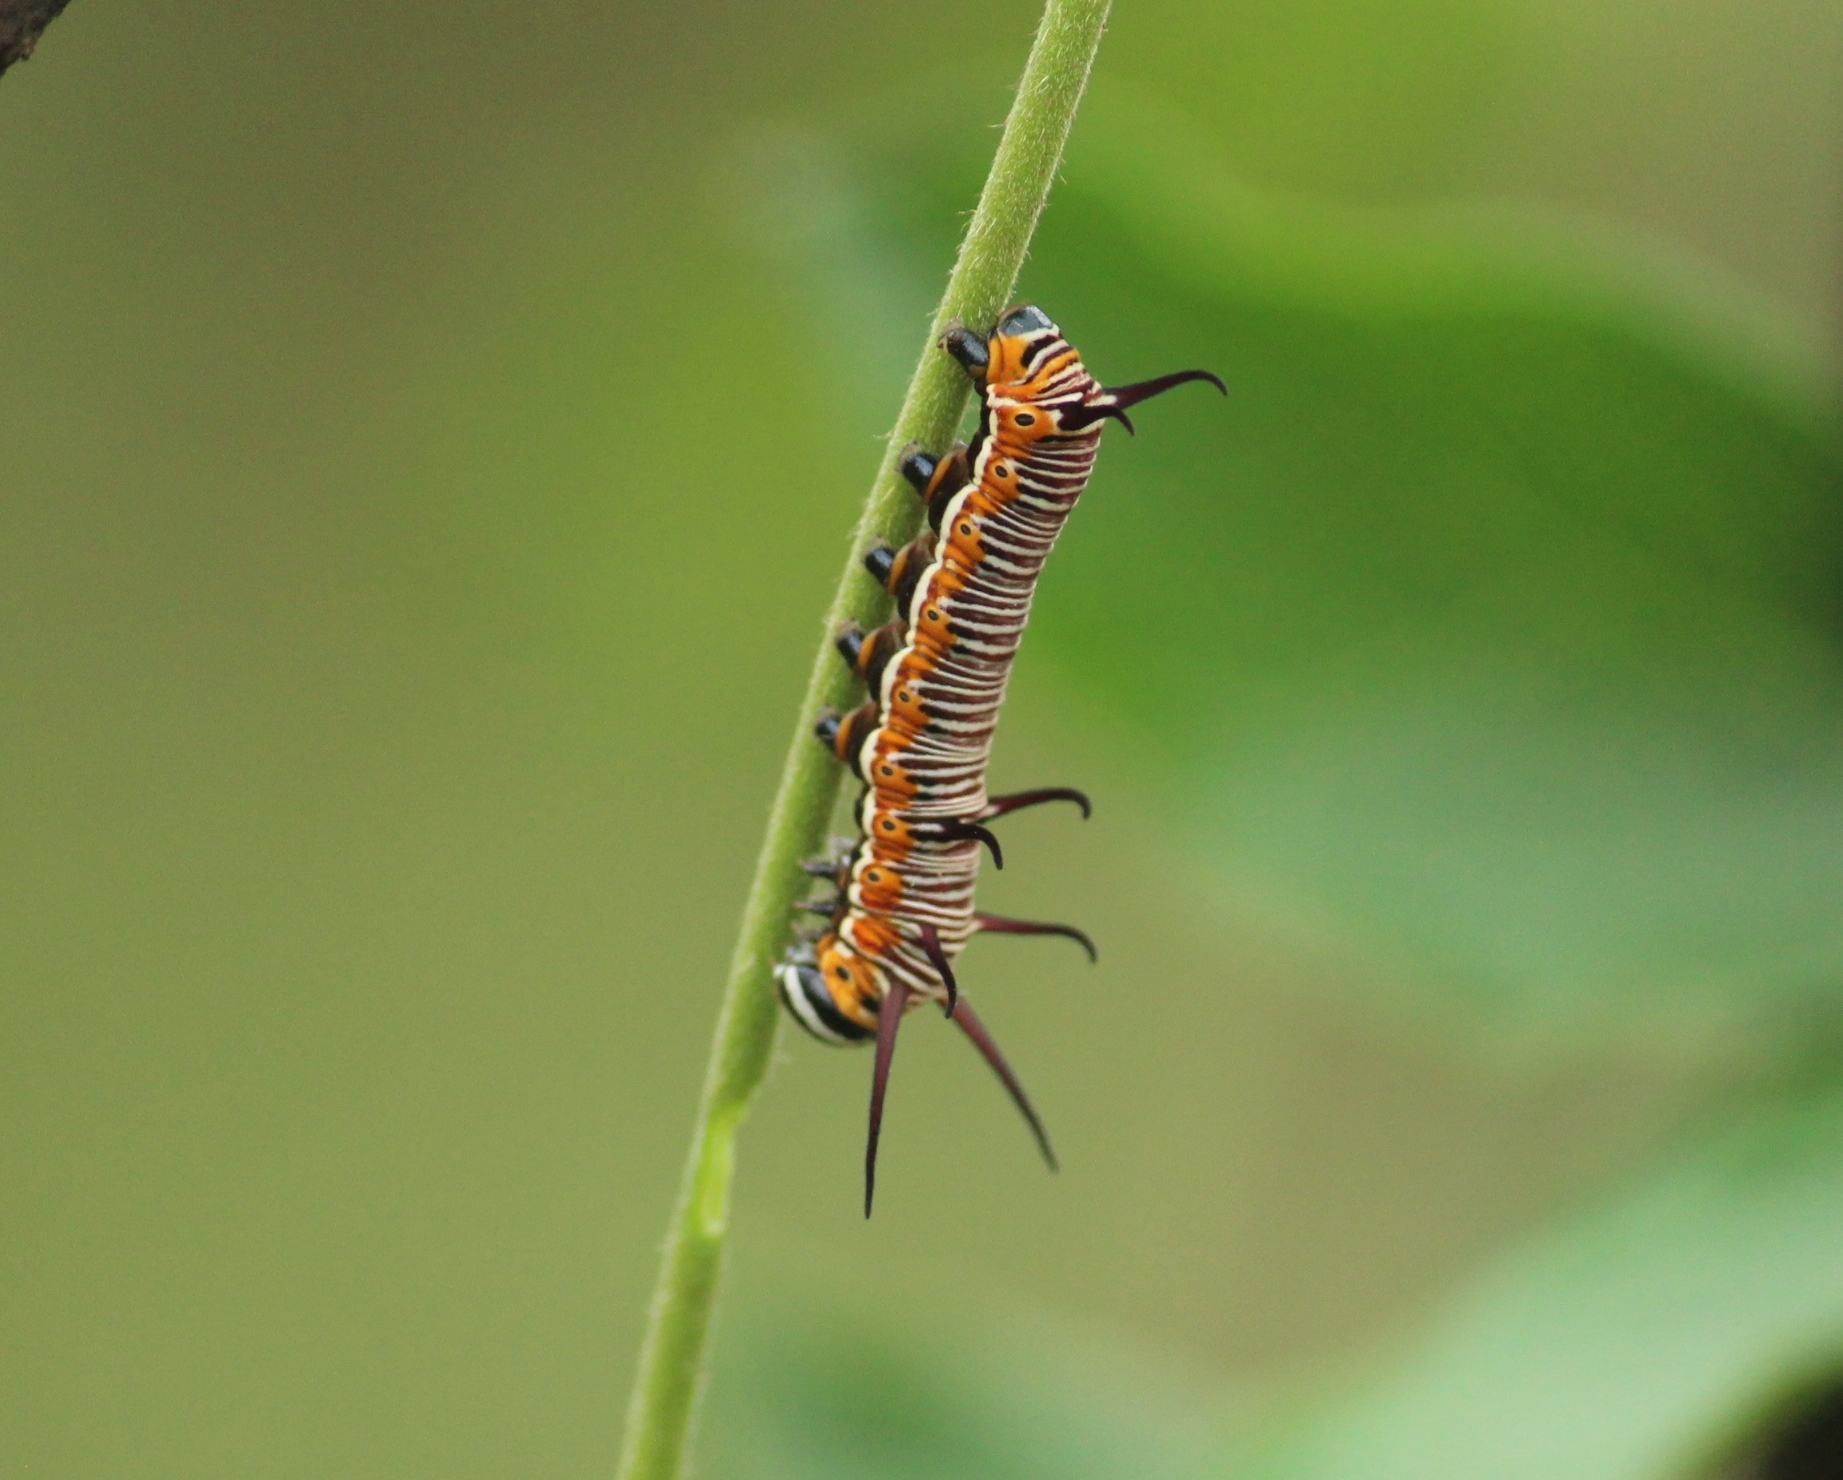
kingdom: Animalia
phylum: Arthropoda
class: Insecta
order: Lepidoptera
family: Nymphalidae
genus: Euploea
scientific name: Euploea core
